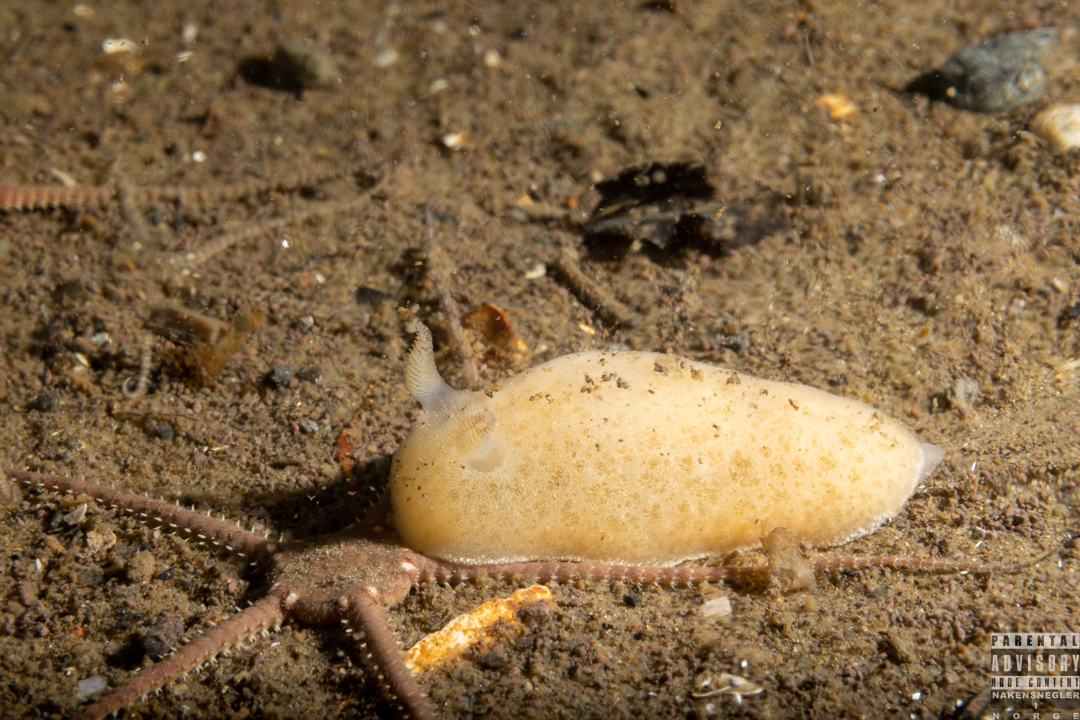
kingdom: Animalia
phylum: Mollusca
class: Gastropoda
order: Nudibranchia
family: Discodorididae
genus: Jorunna
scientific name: Jorunna tomentosa
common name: Grey sea slug
